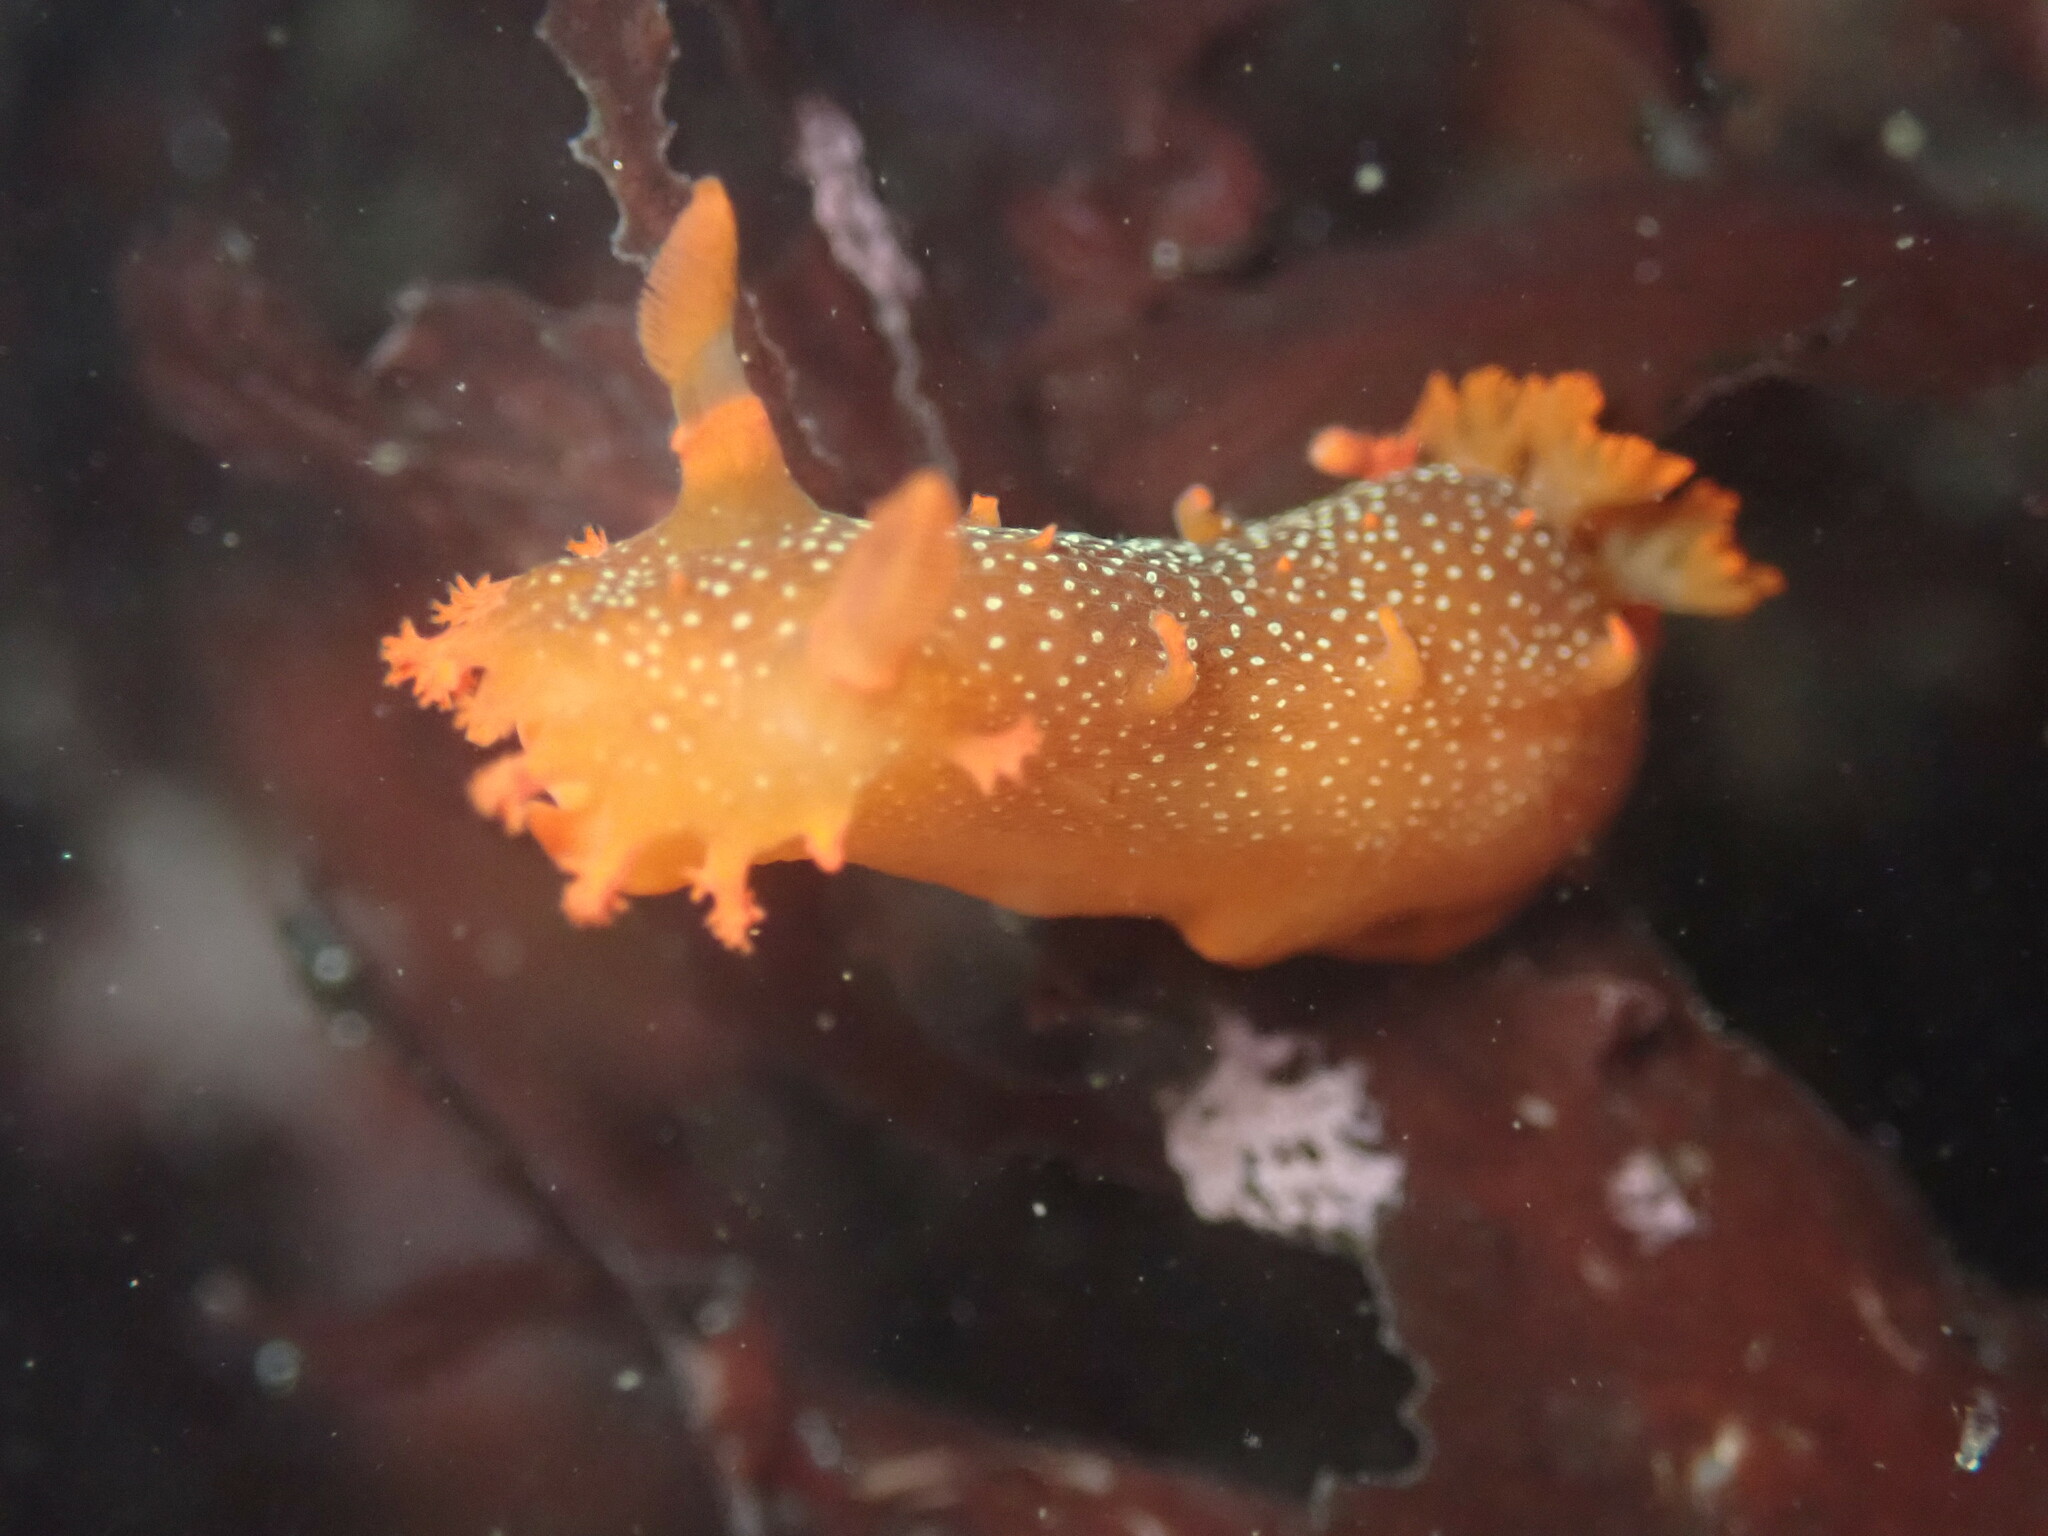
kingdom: Animalia
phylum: Mollusca
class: Gastropoda
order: Nudibranchia
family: Polyceridae
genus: Triopha
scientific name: Triopha maculata
